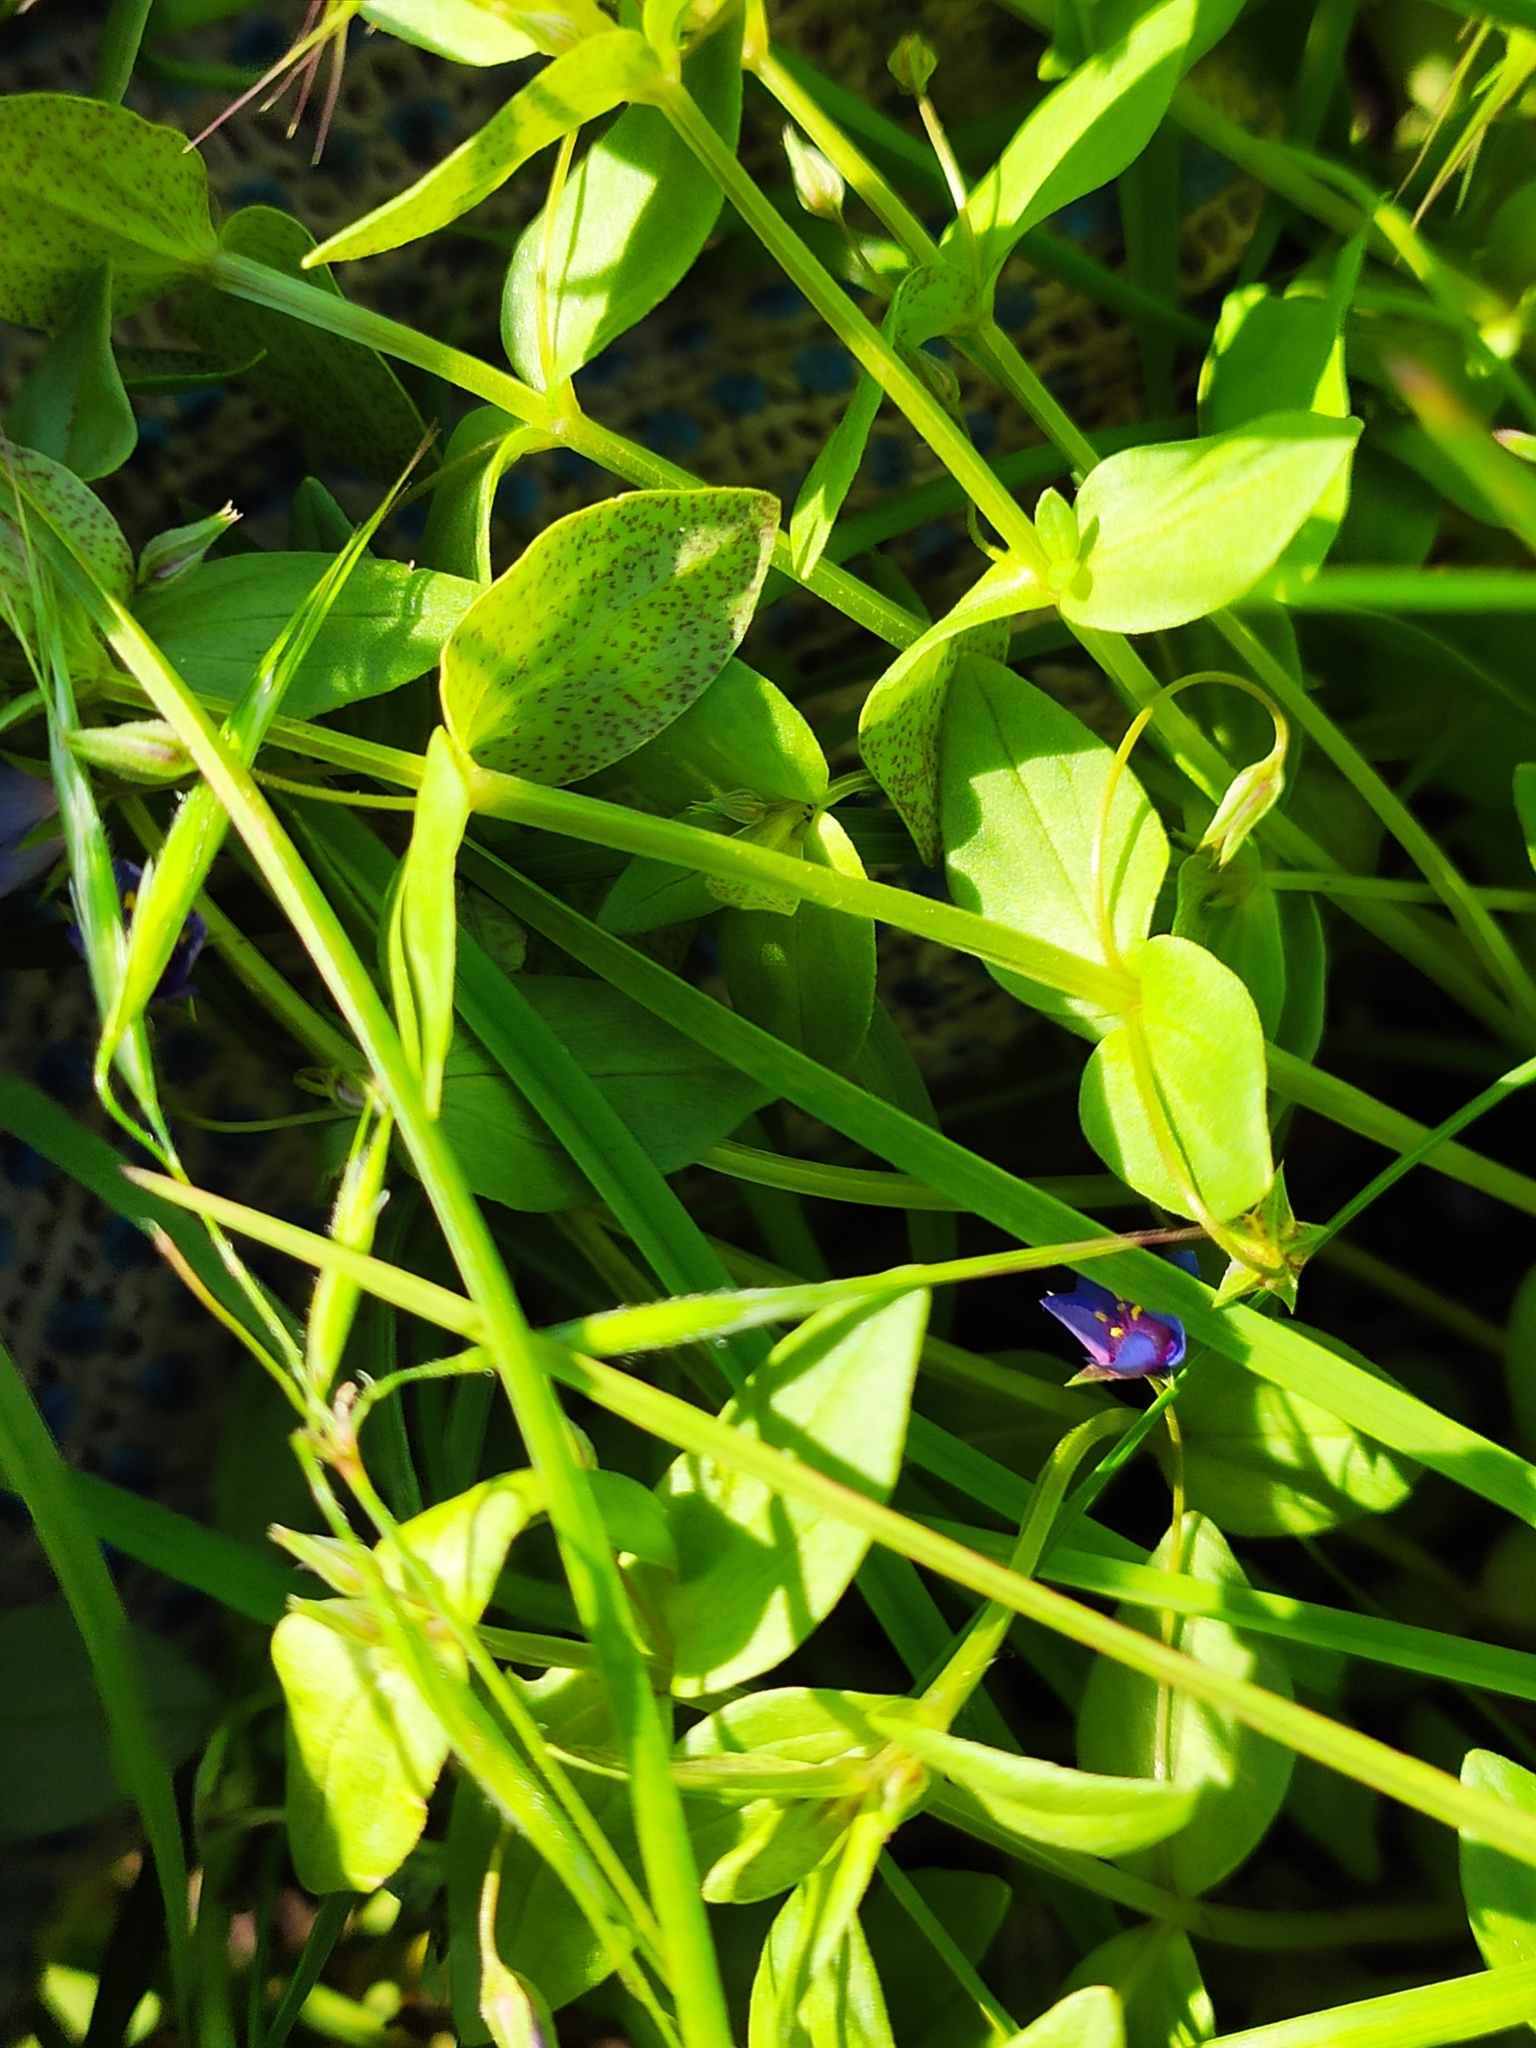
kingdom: Plantae
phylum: Tracheophyta
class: Magnoliopsida
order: Ericales
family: Primulaceae
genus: Lysimachia
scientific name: Lysimachia foemina
